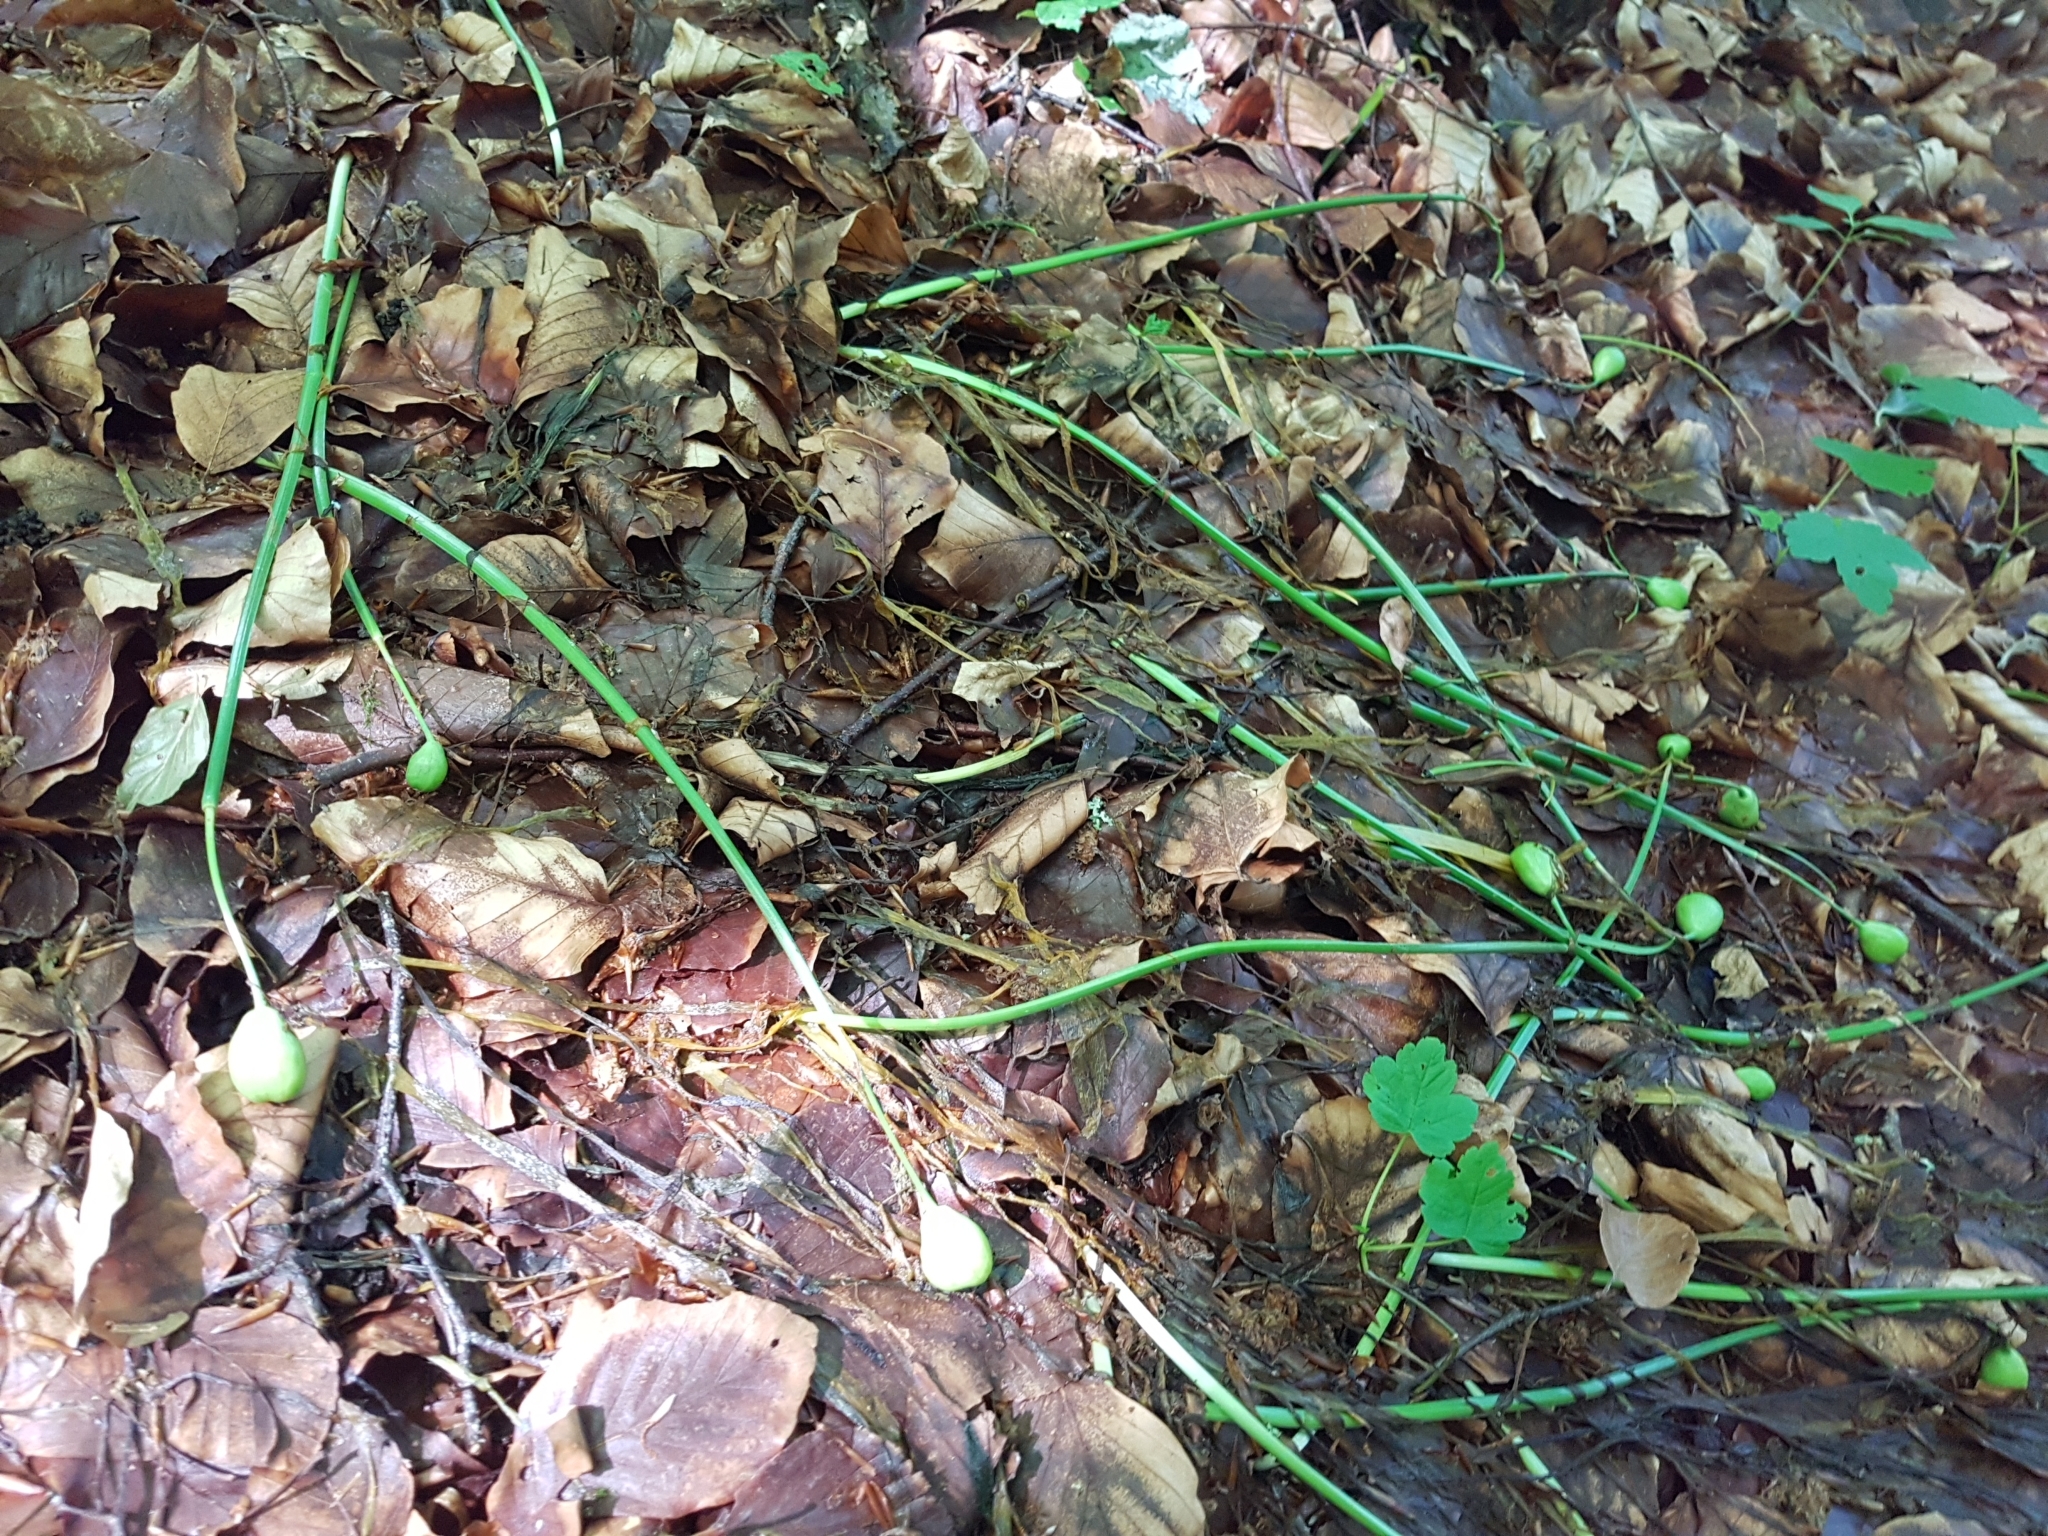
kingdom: Plantae
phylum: Tracheophyta
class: Liliopsida
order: Asparagales
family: Amaryllidaceae
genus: Leucojum
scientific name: Leucojum vernum
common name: Spring snowflake
